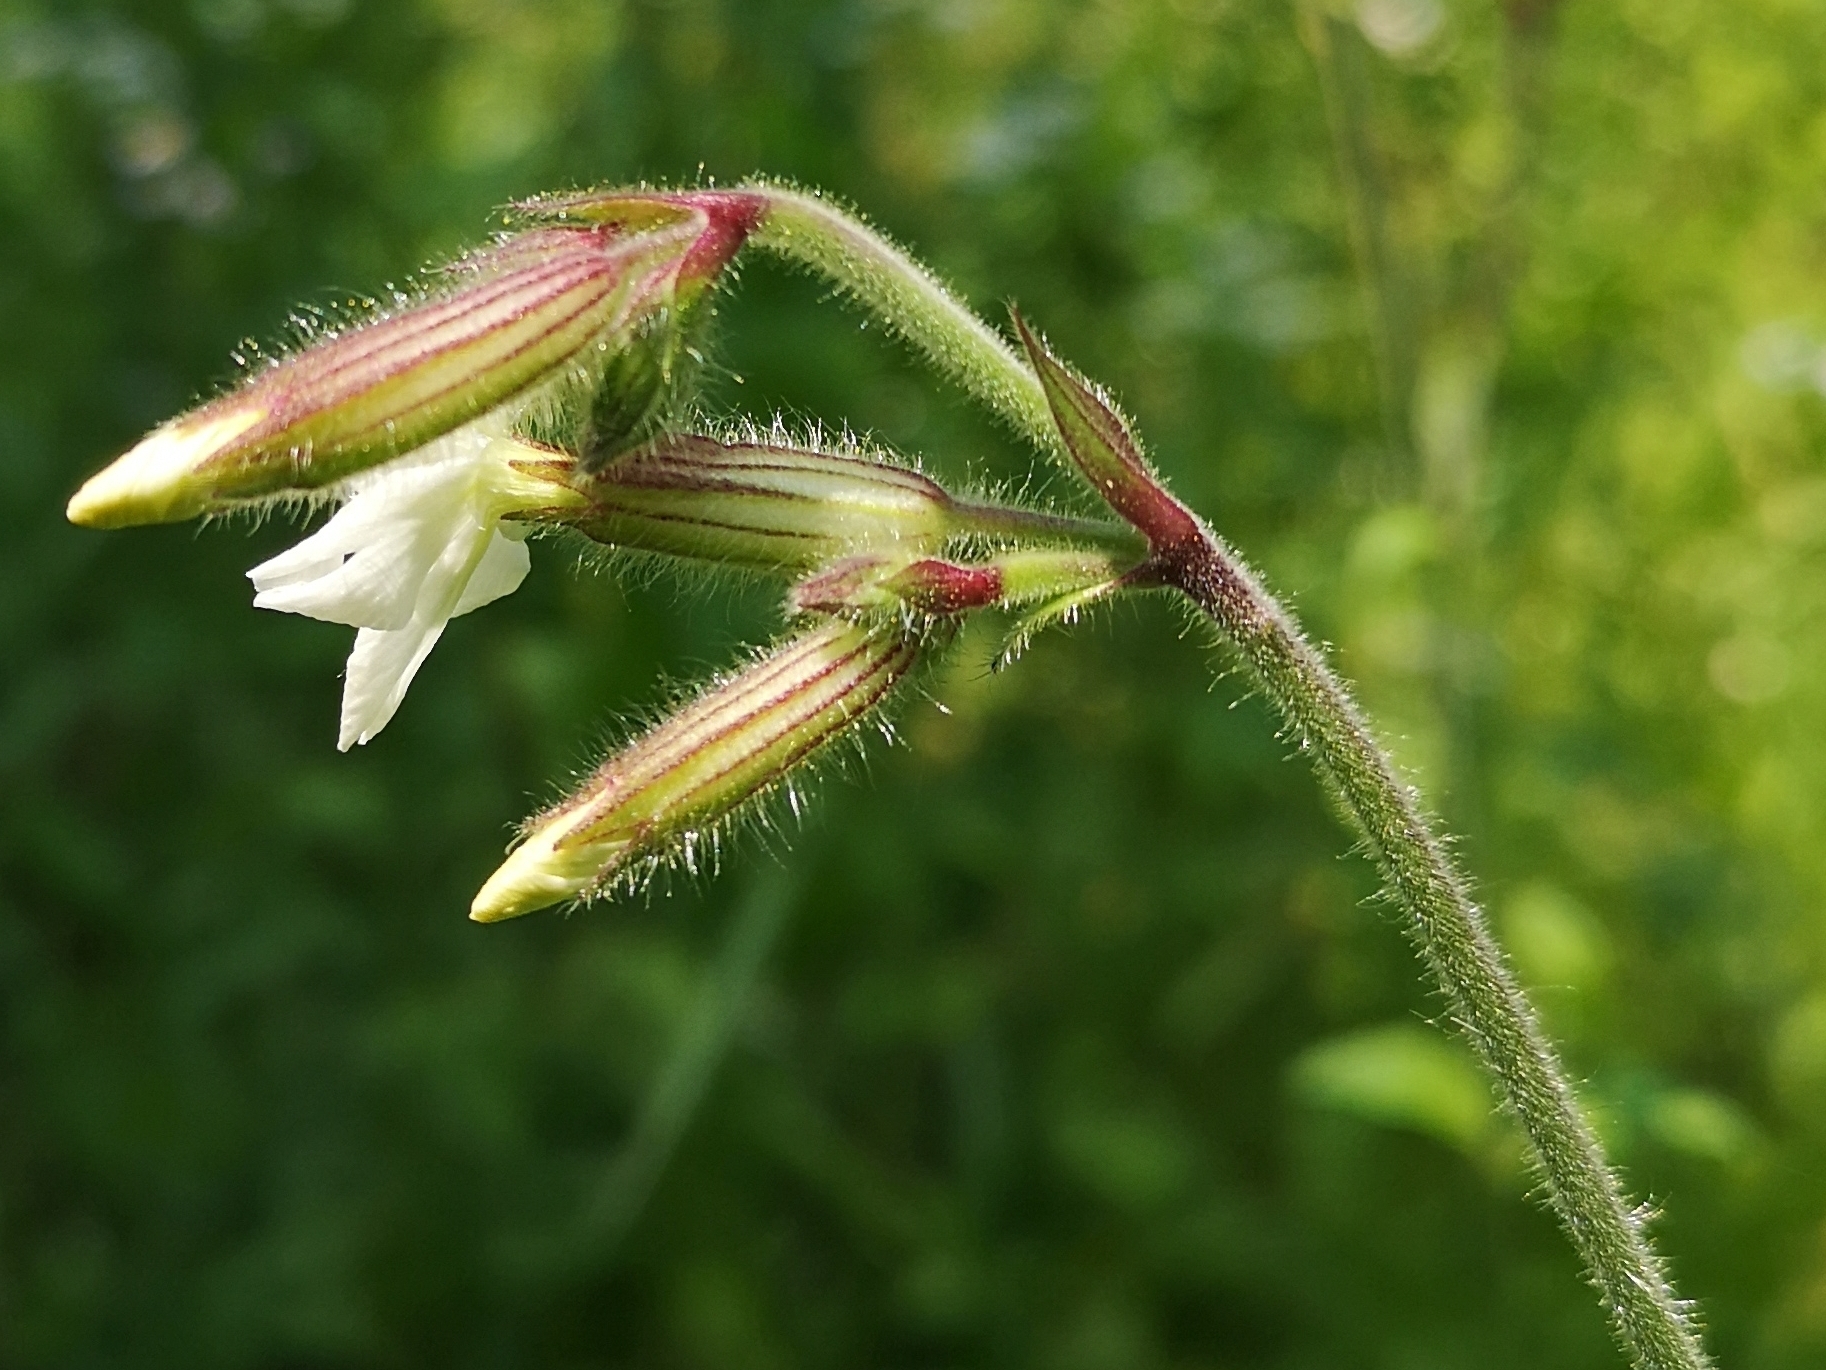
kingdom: Plantae
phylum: Tracheophyta
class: Magnoliopsida
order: Caryophyllales
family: Caryophyllaceae
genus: Silene
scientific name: Silene latifolia
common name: White campion
